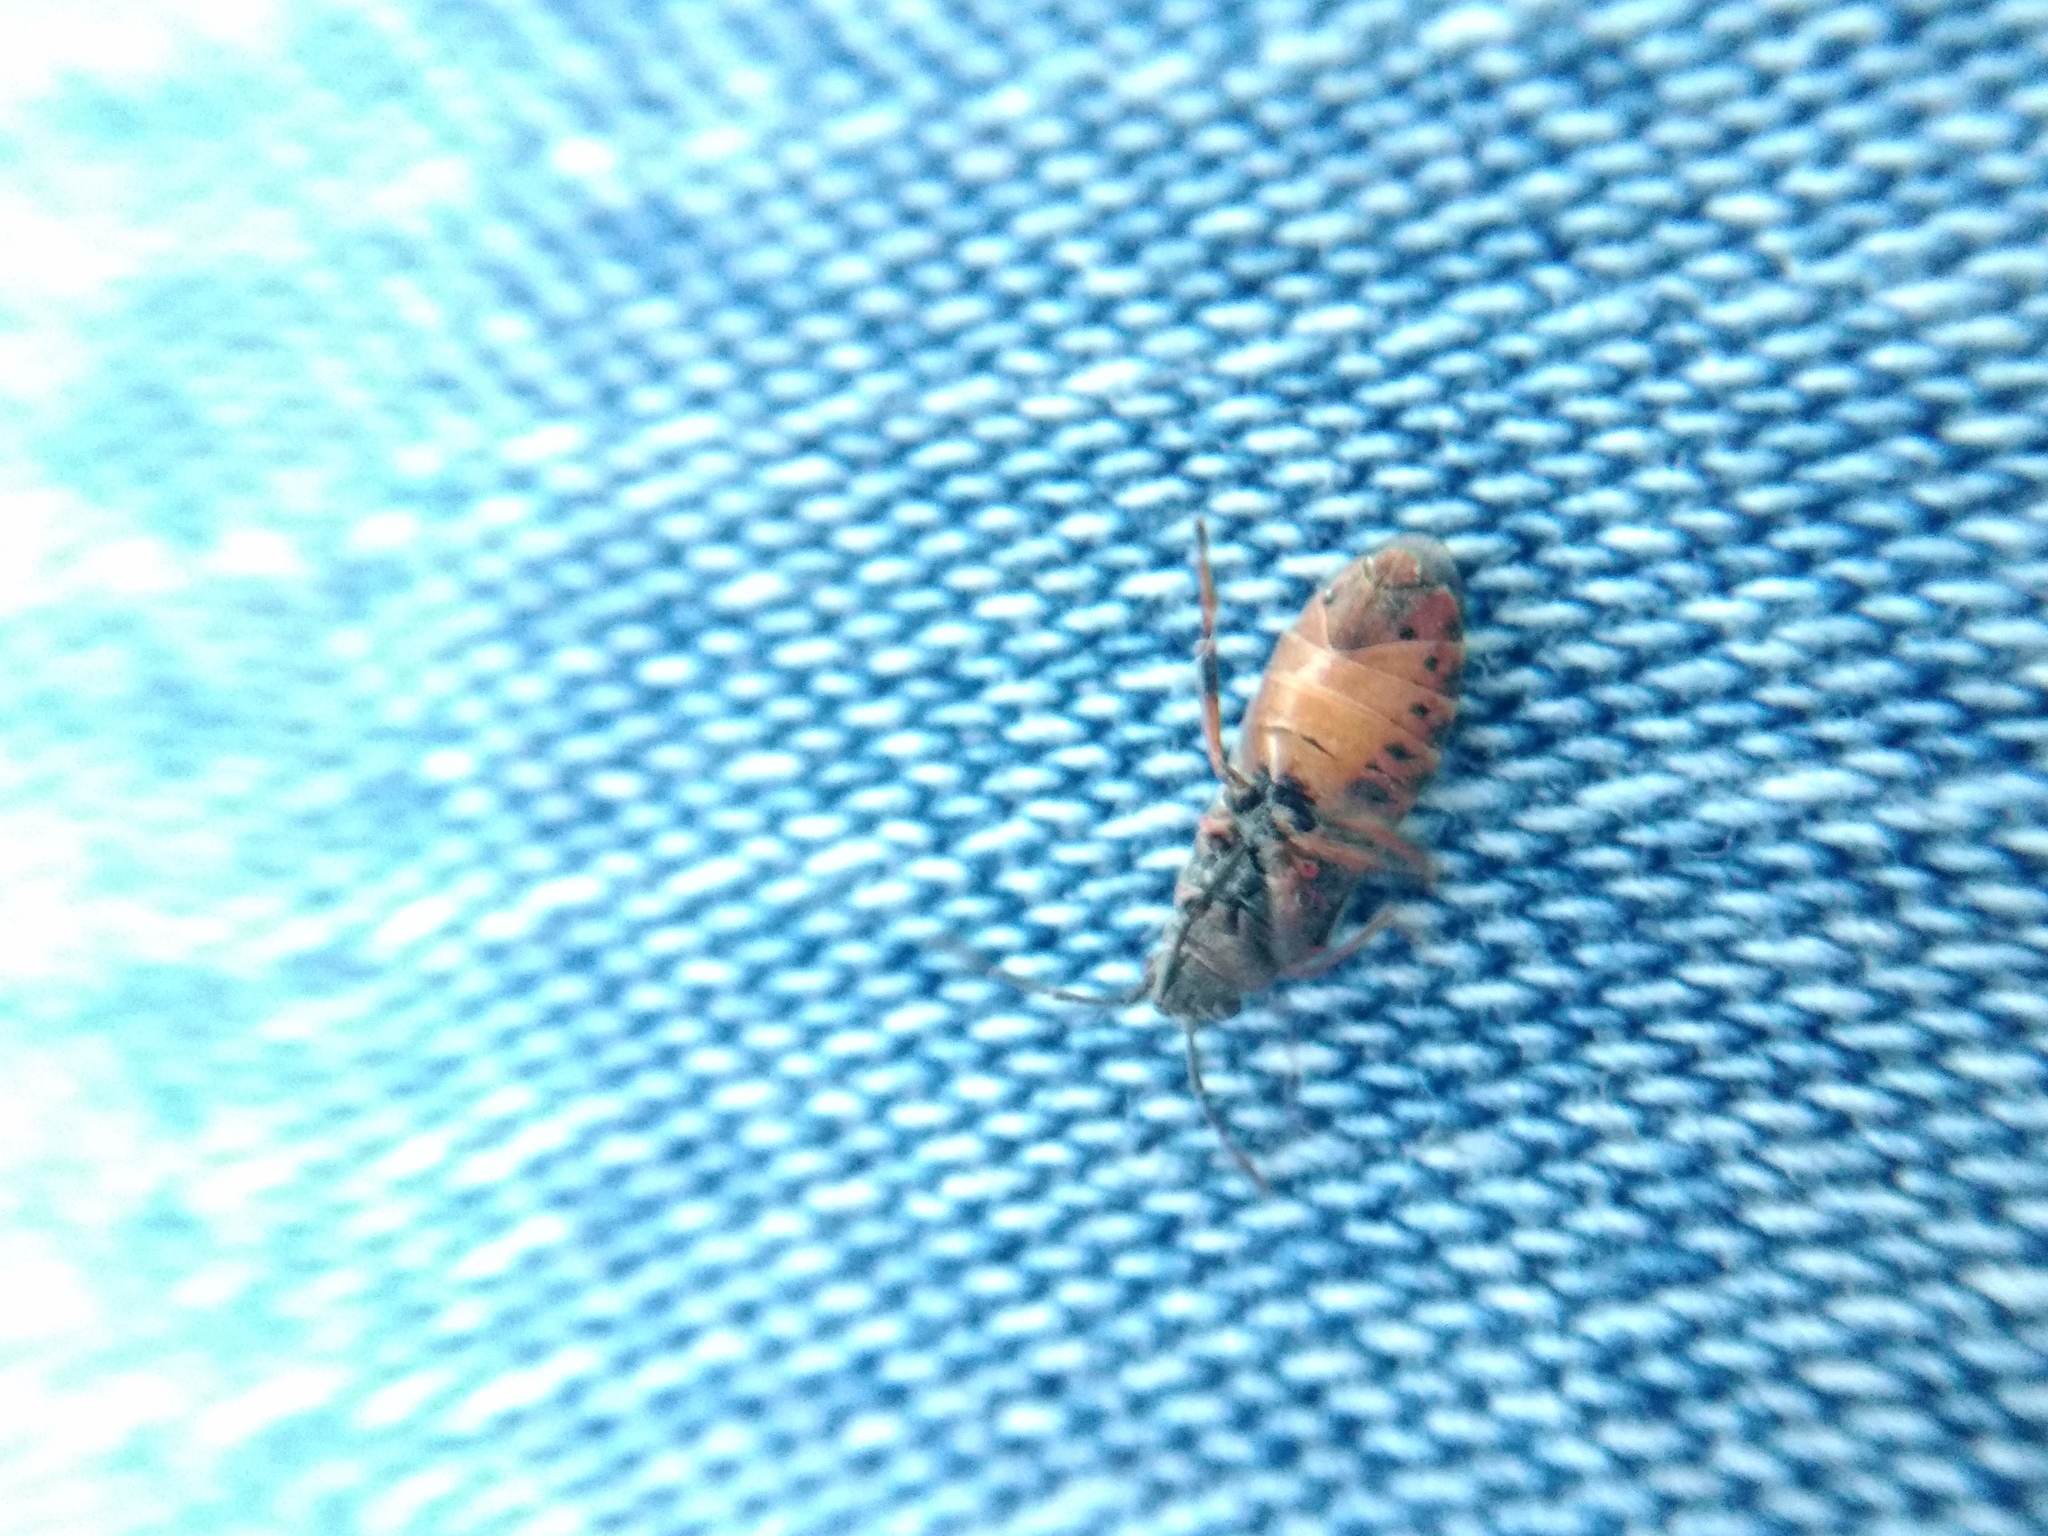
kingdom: Animalia
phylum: Arthropoda
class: Insecta
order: Hemiptera
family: Lygaeidae
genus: Arocatus
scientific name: Arocatus melanocephalus
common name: Lygaeid bug
